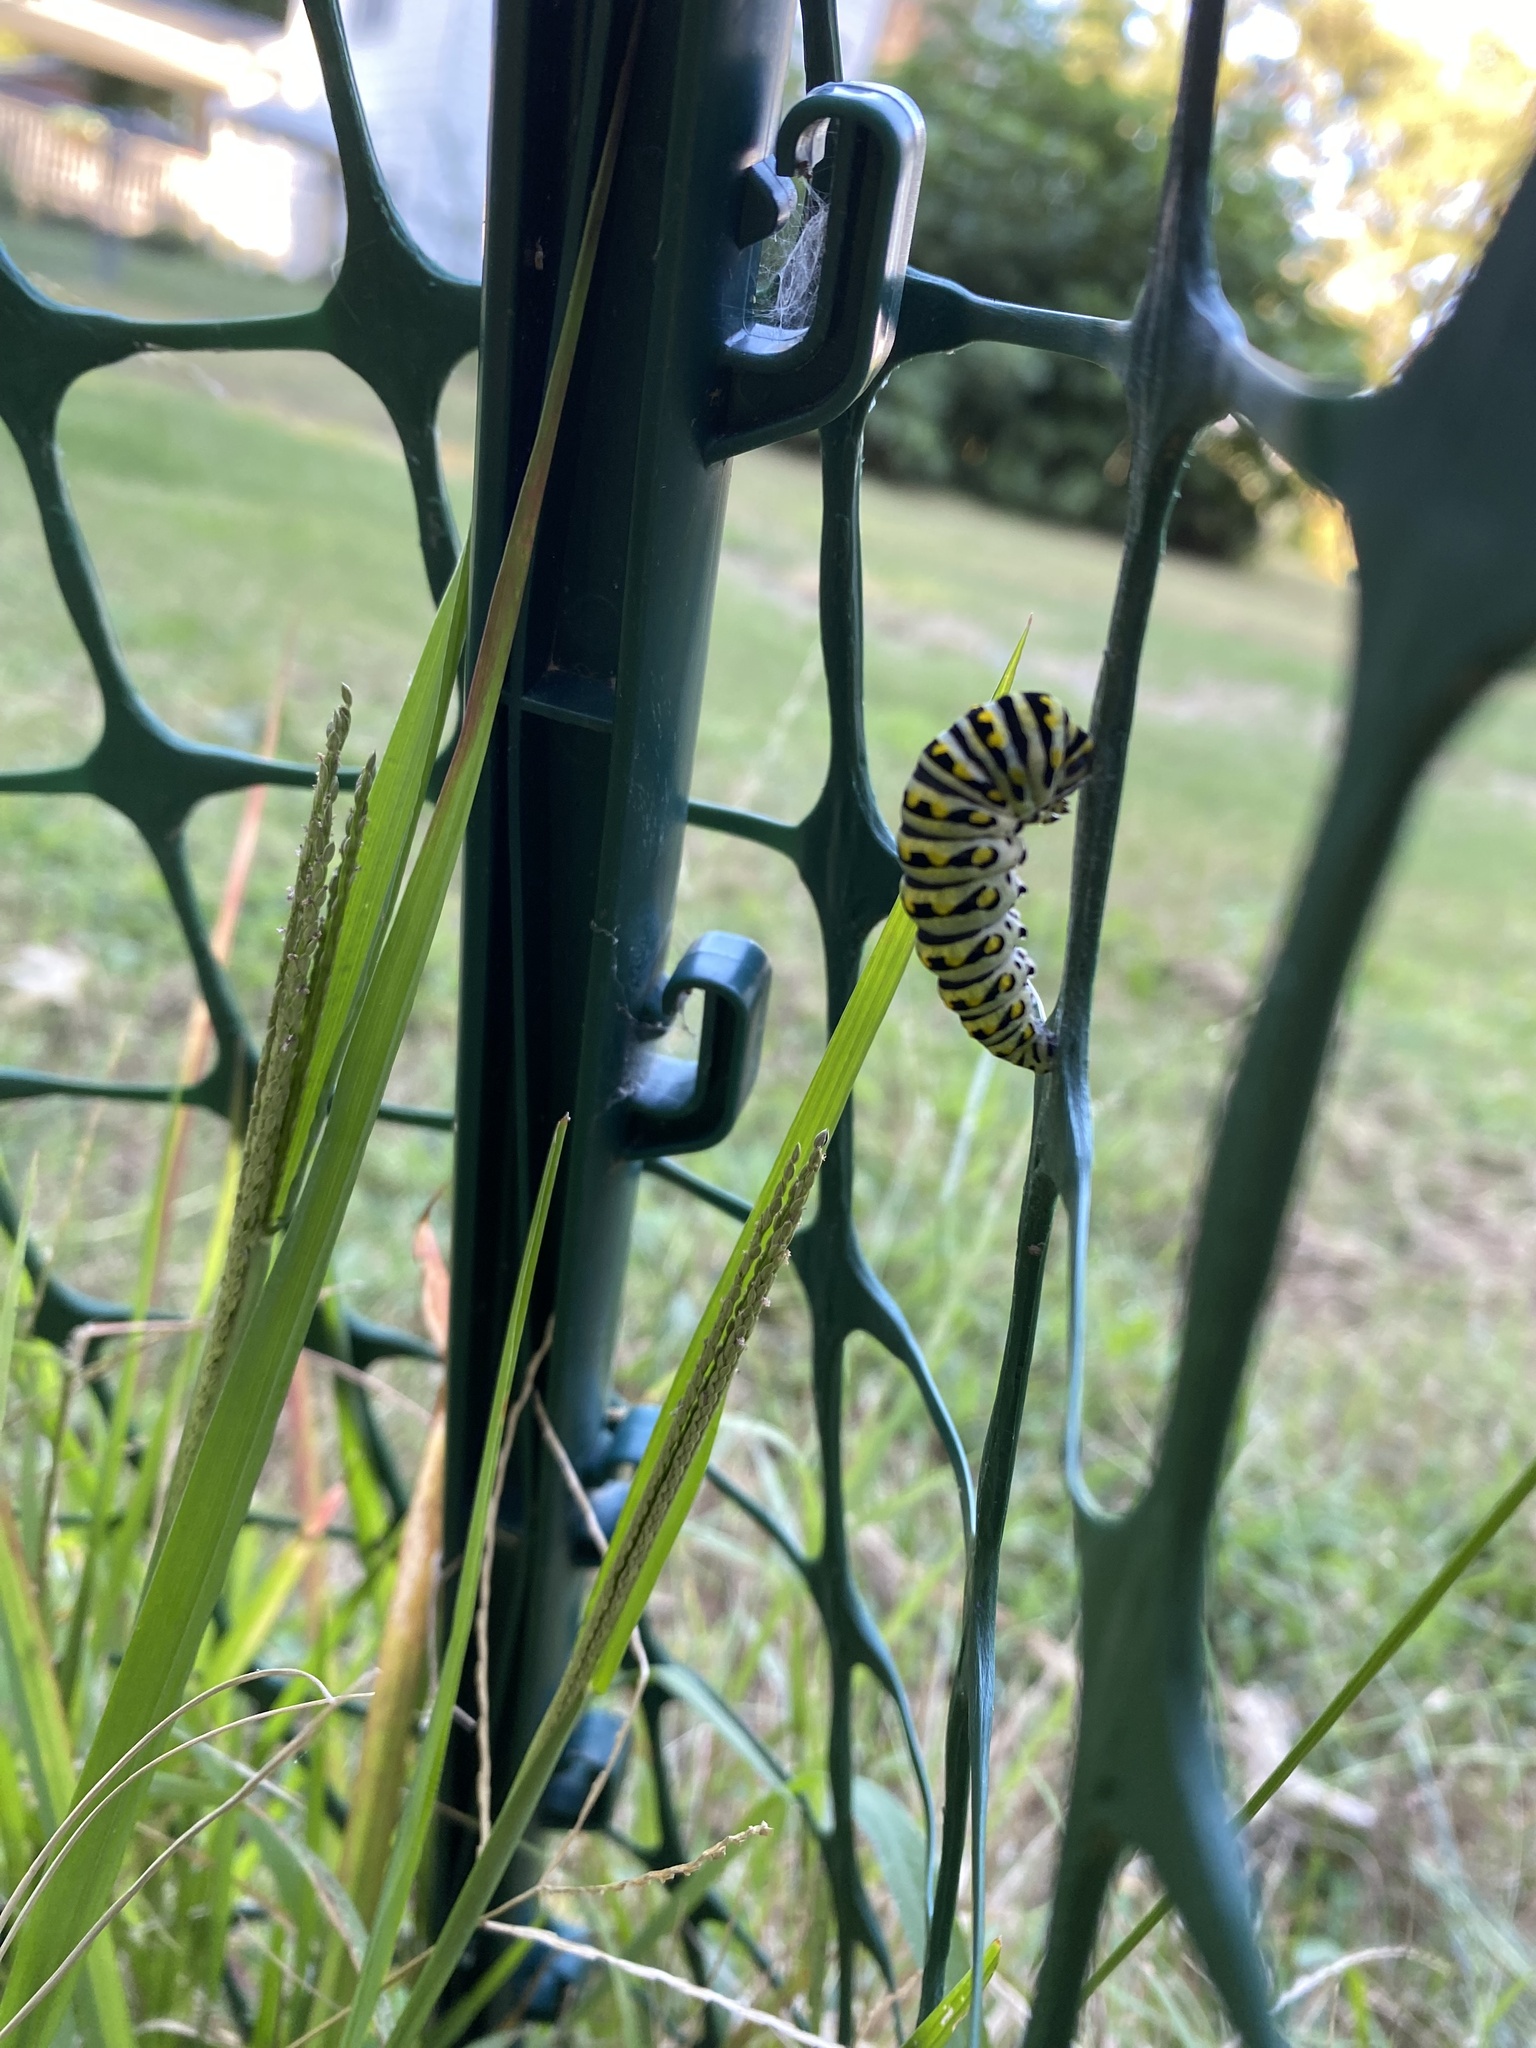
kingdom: Animalia
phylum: Arthropoda
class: Insecta
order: Lepidoptera
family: Papilionidae
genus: Papilio
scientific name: Papilio polyxenes
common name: Black swallowtail
